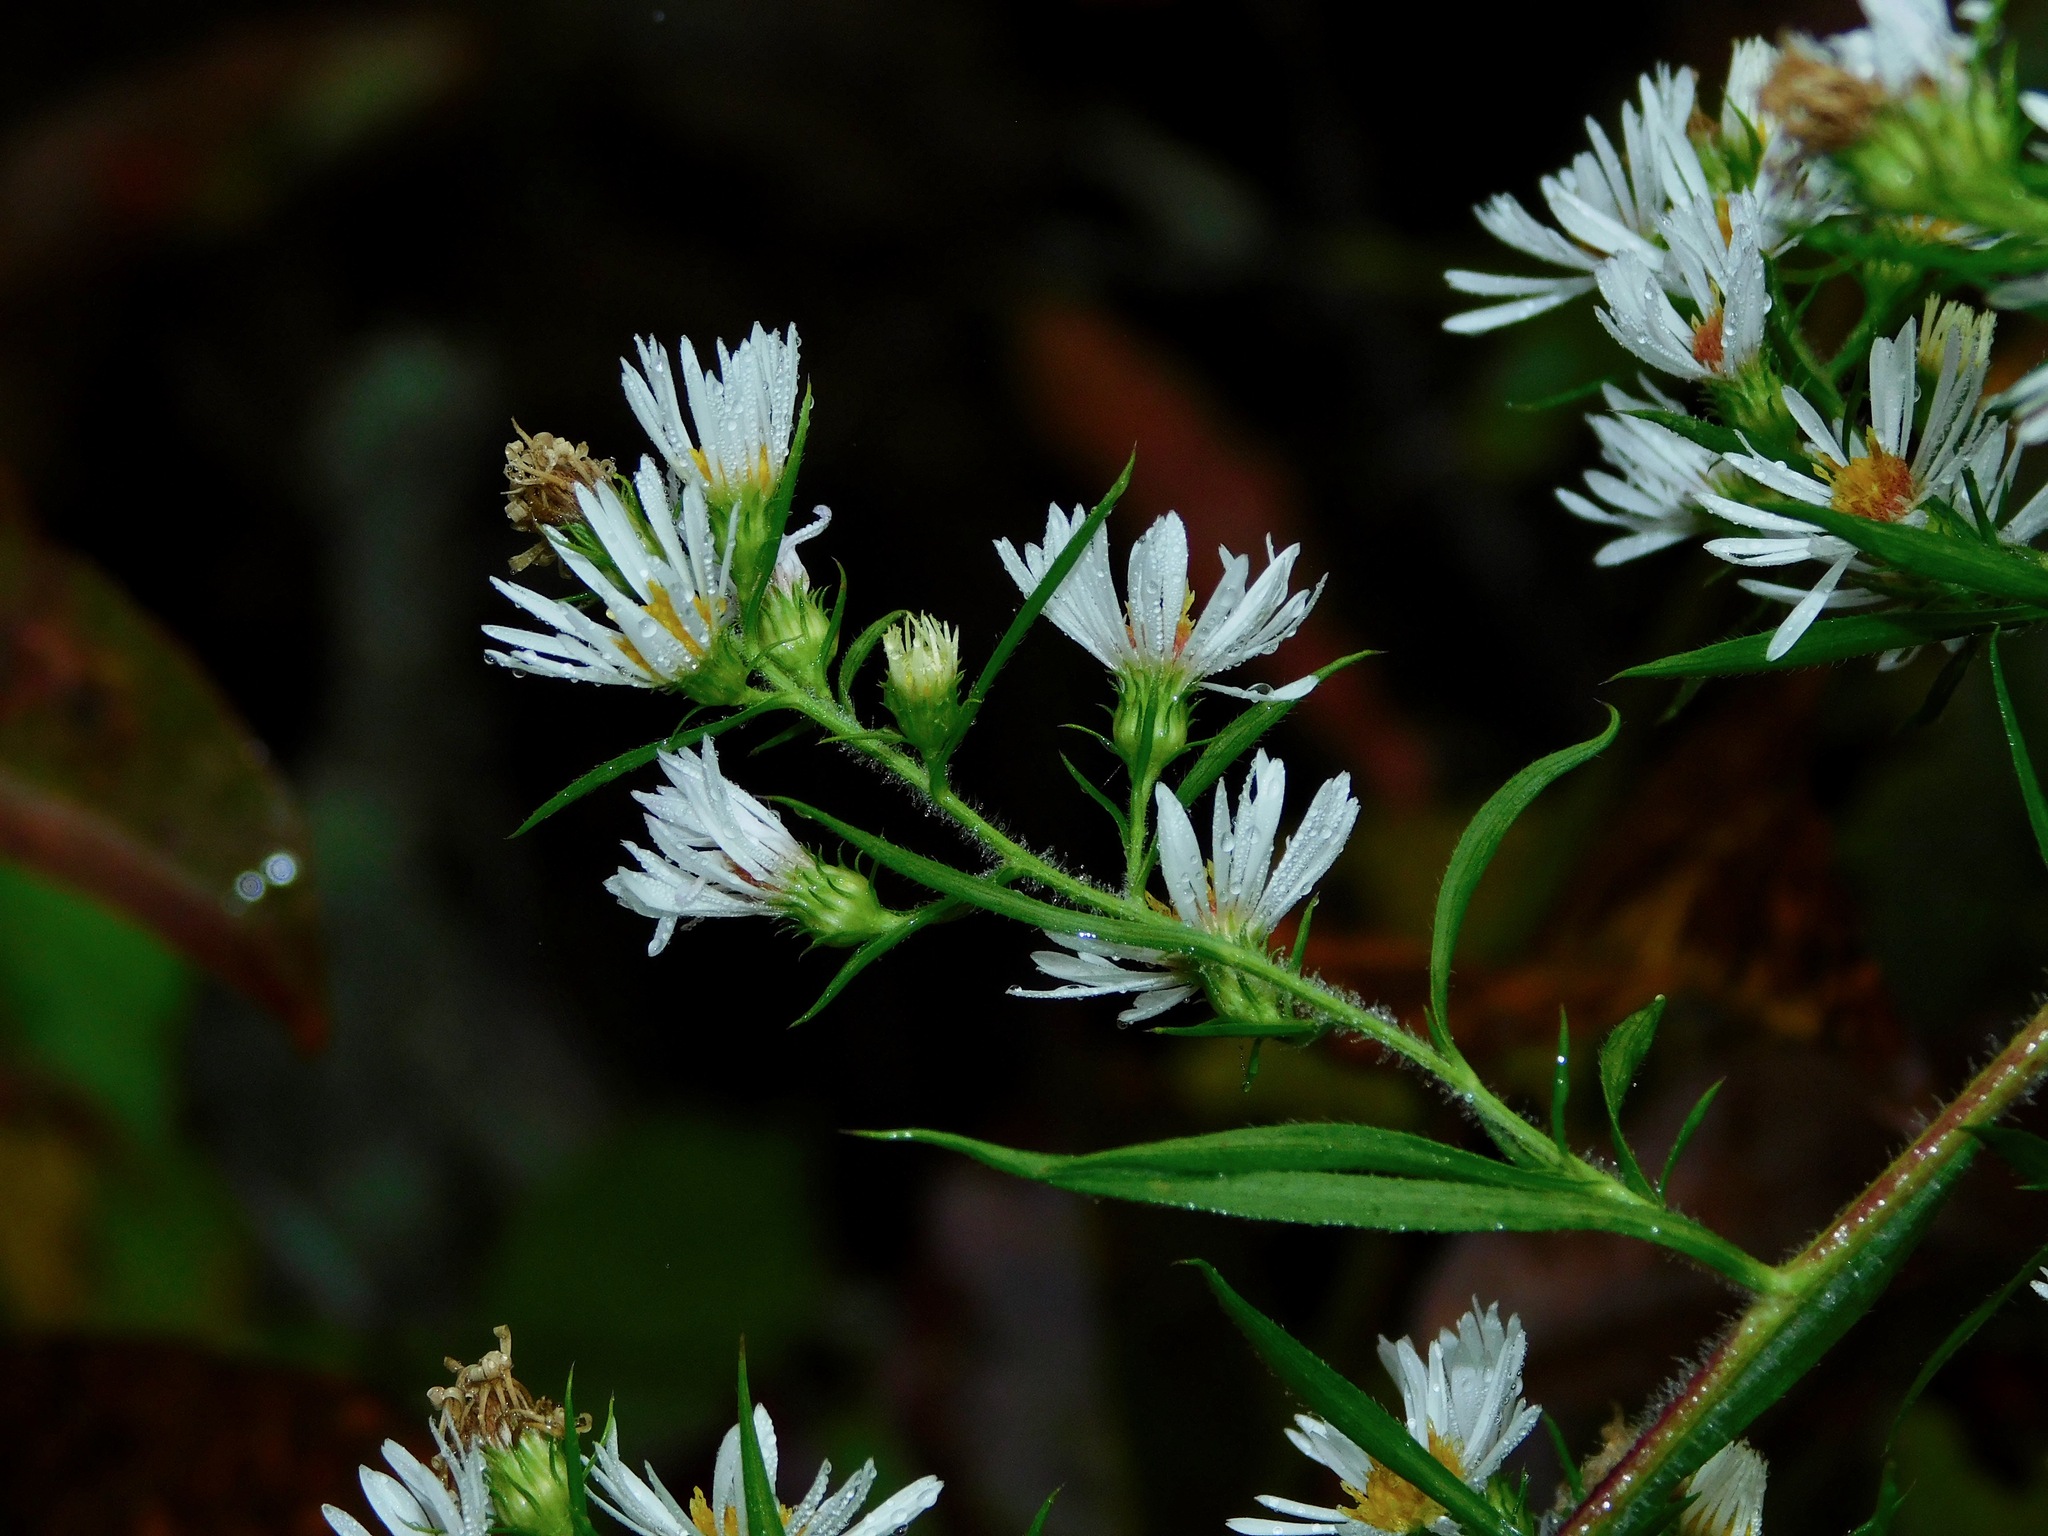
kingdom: Plantae
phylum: Tracheophyta
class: Magnoliopsida
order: Asterales
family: Asteraceae
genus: Symphyotrichum
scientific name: Symphyotrichum pilosum
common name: Awl aster
